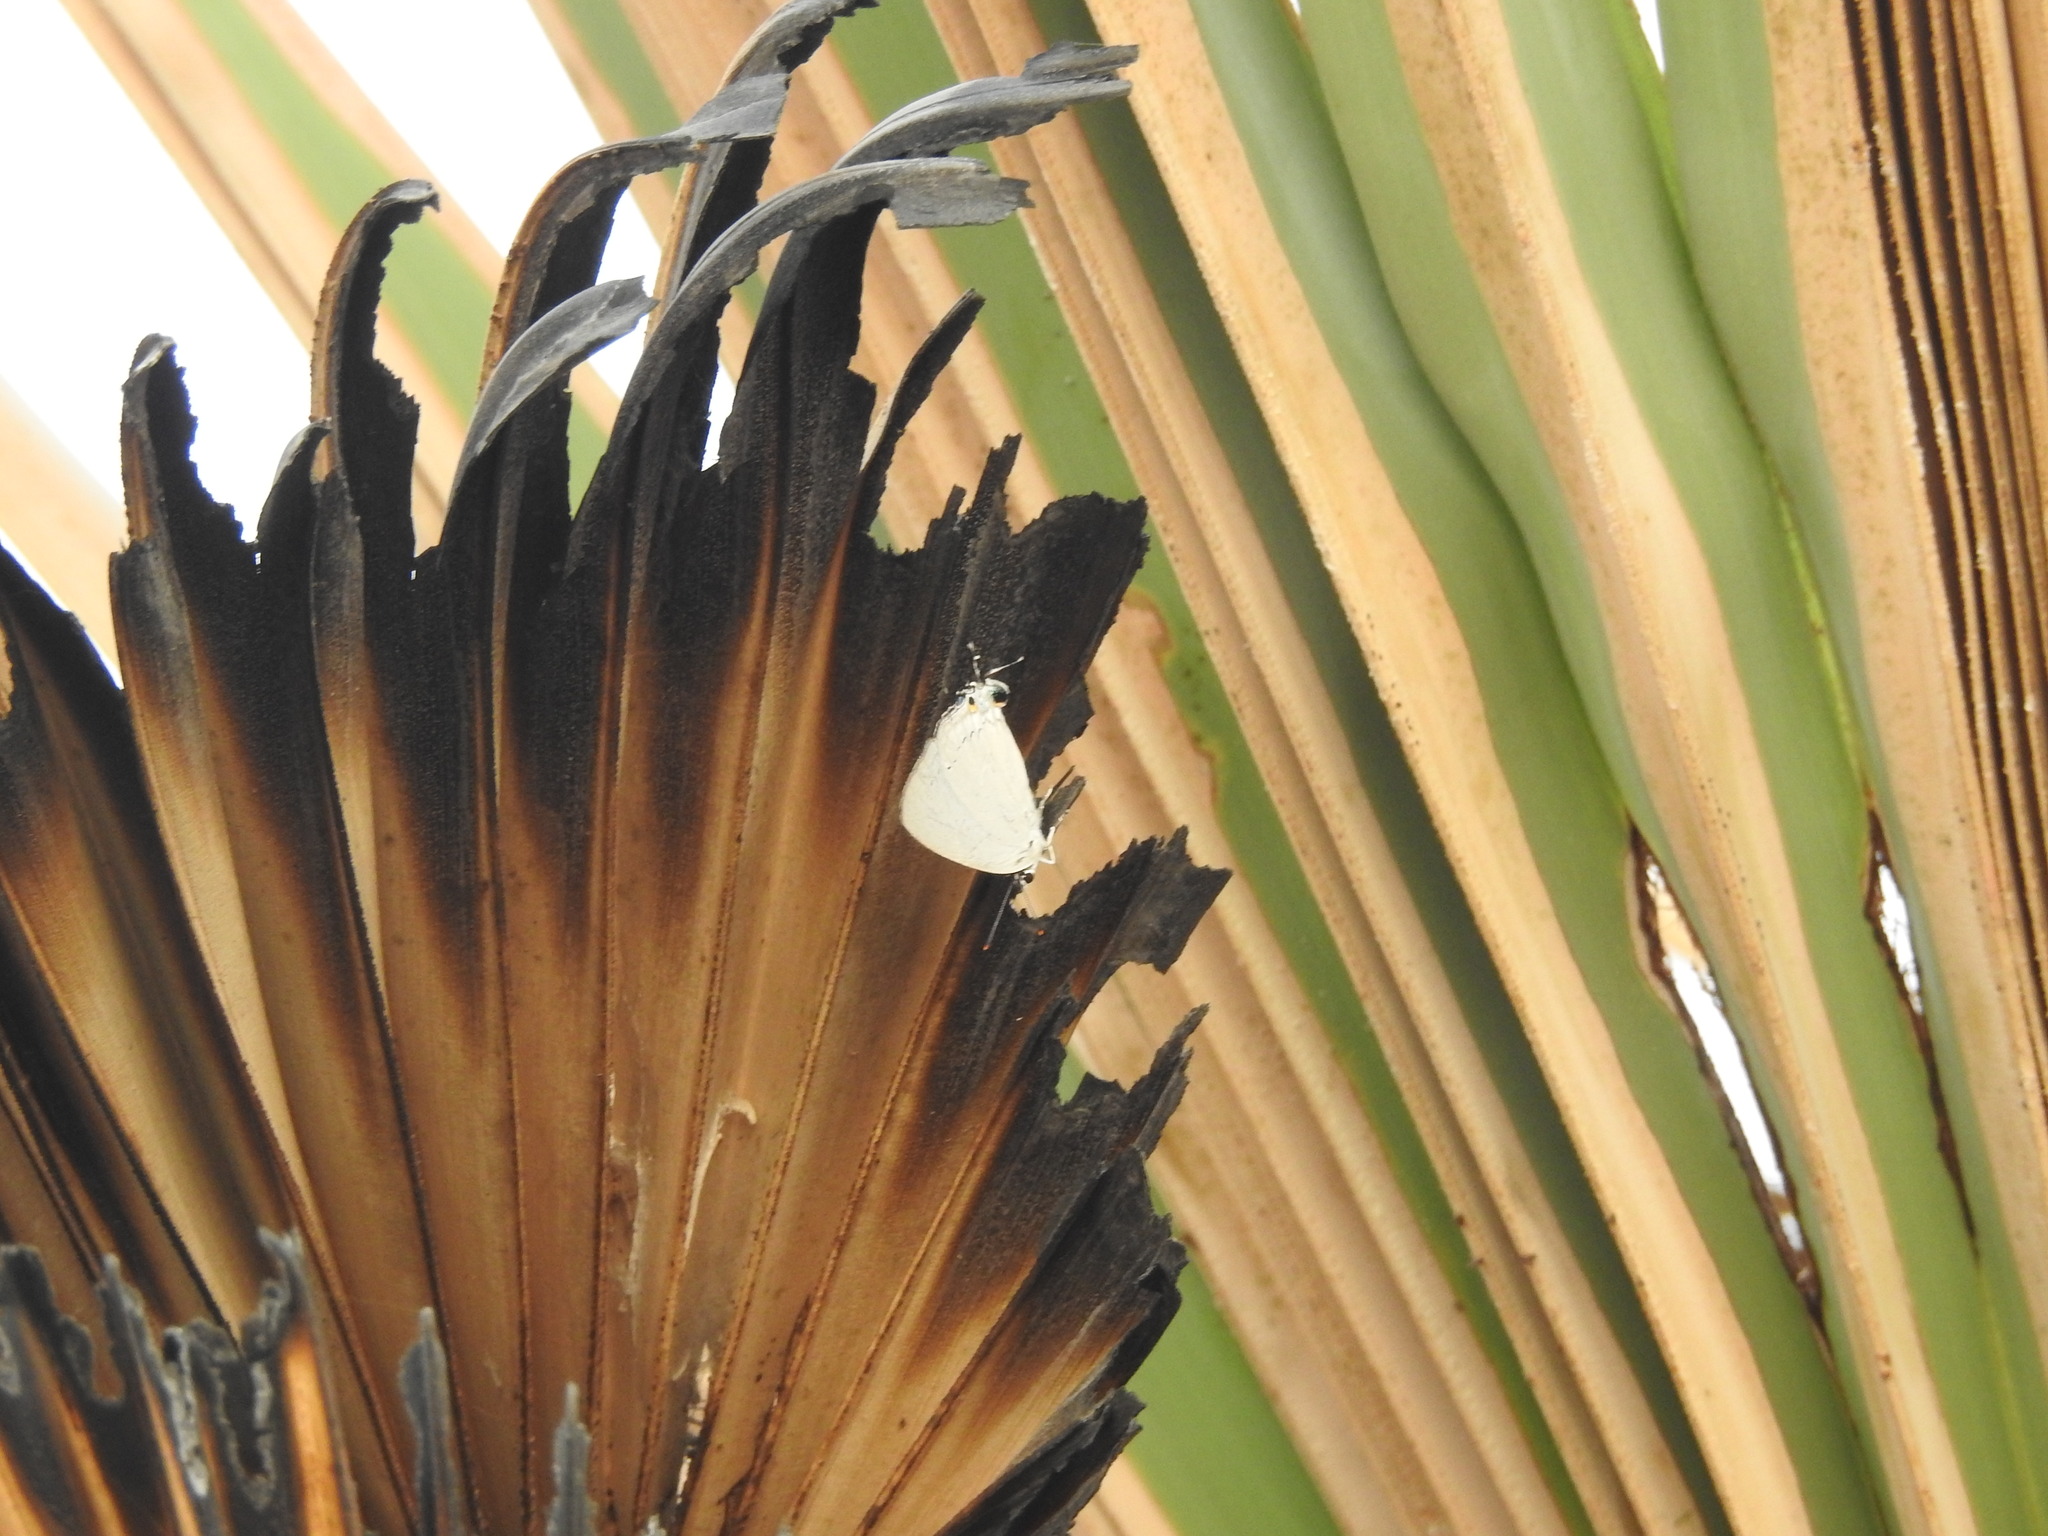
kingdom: Animalia
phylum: Arthropoda
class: Insecta
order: Lepidoptera
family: Lycaenidae
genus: Tajuria
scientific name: Tajuria cippus
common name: Peacock royal
